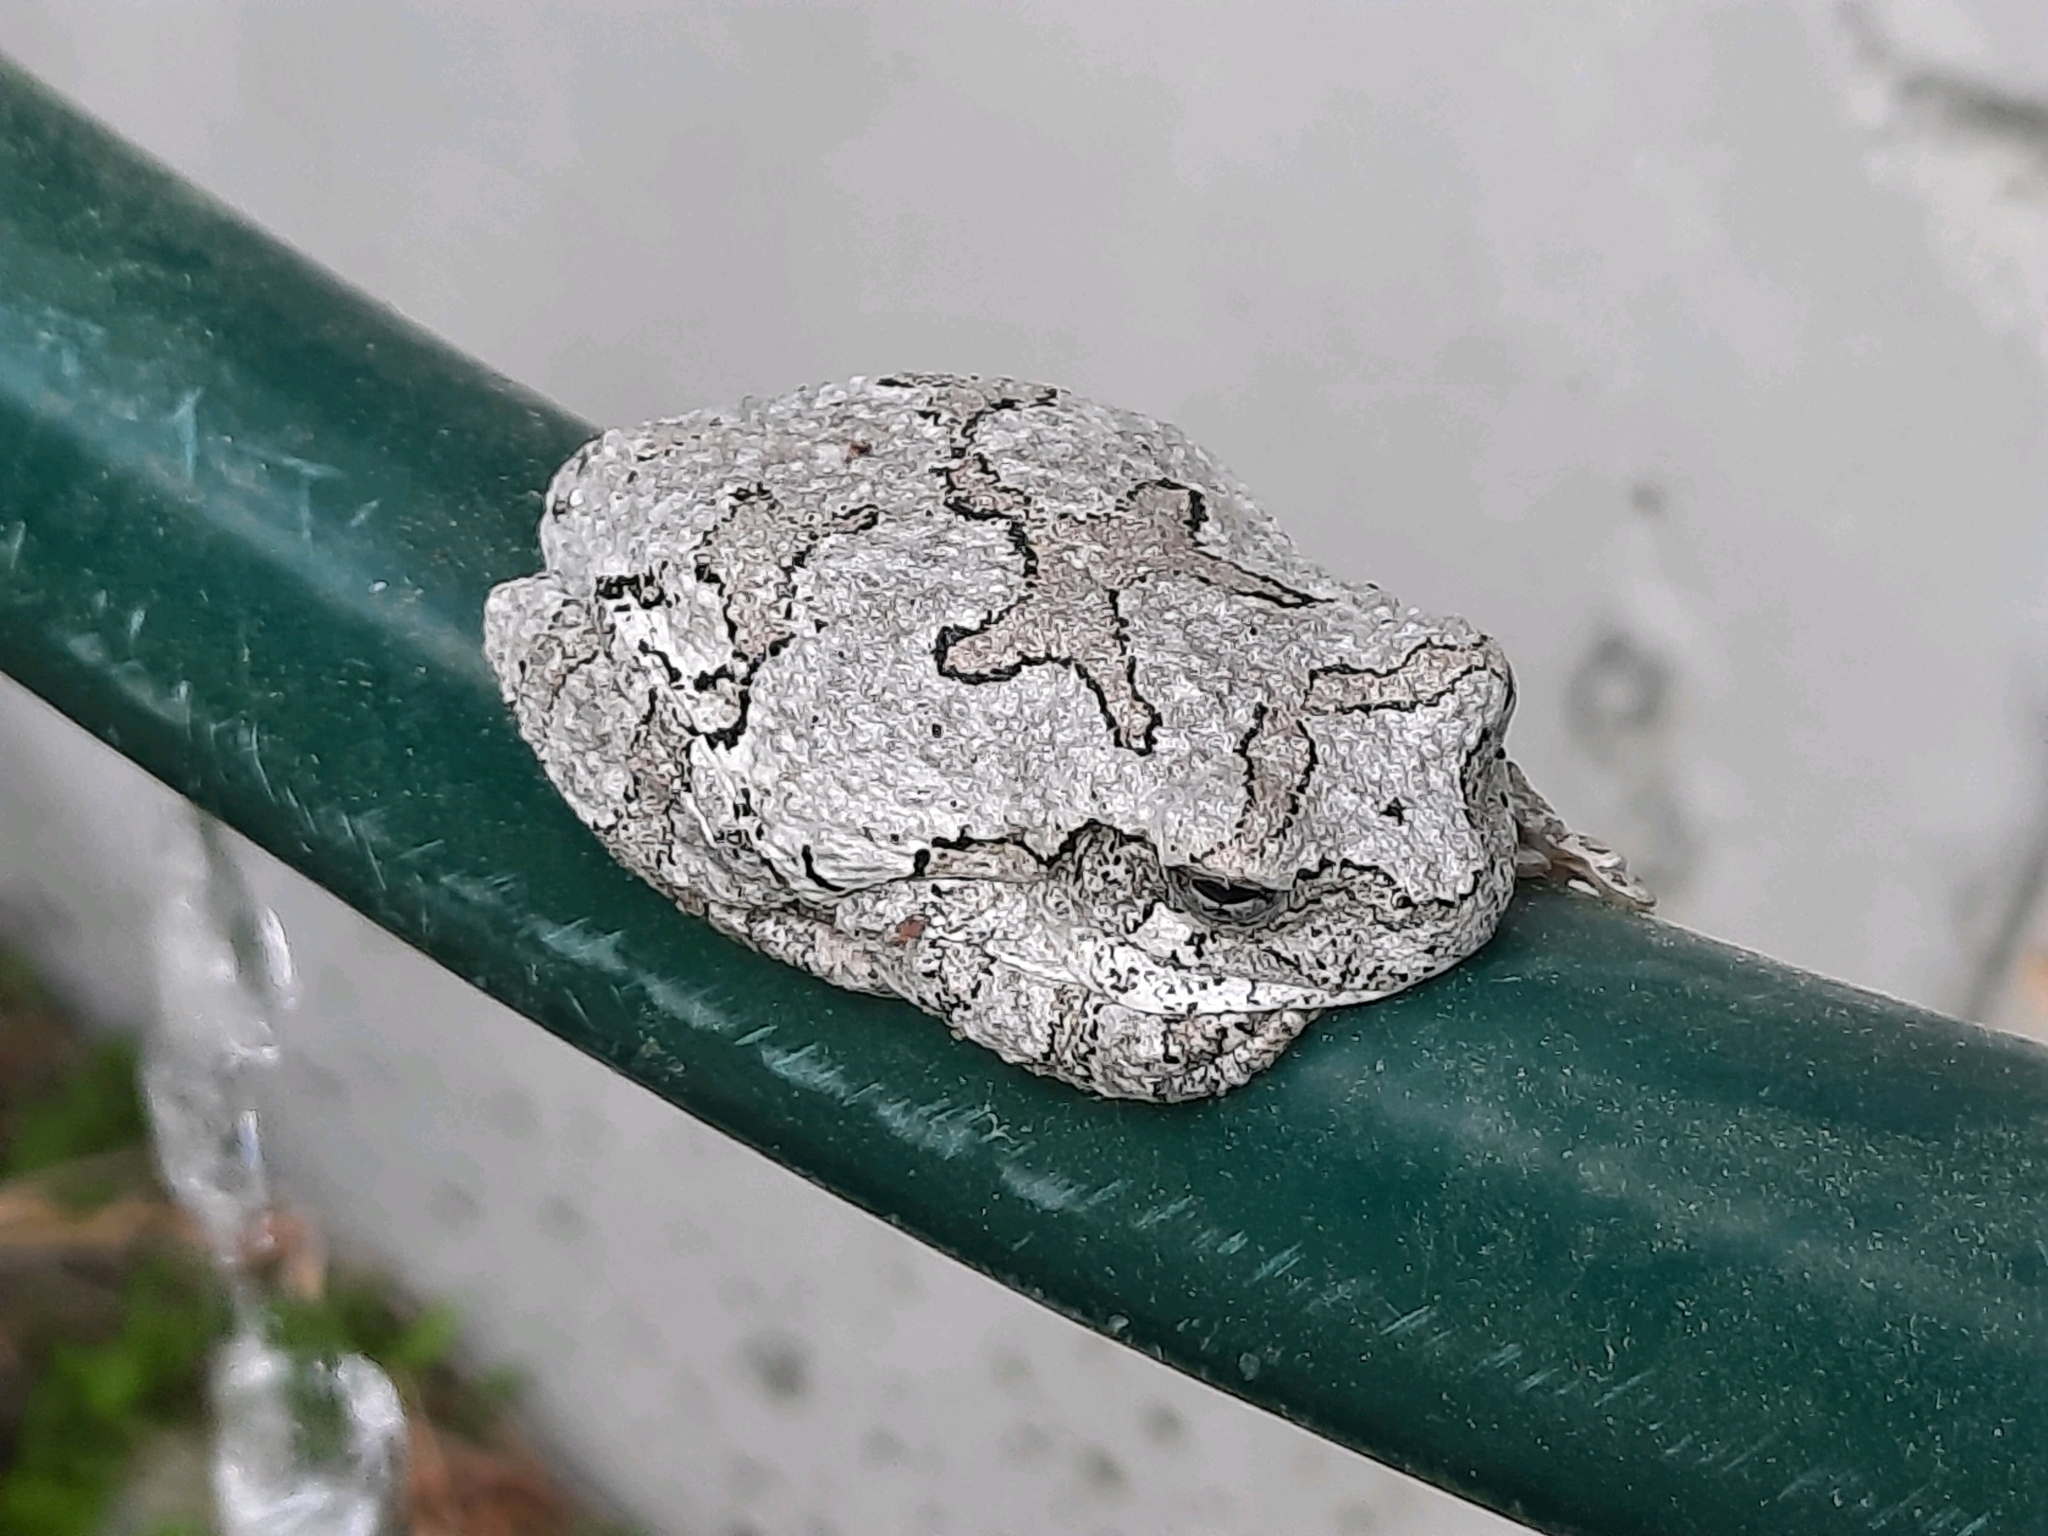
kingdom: Animalia
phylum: Chordata
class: Amphibia
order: Anura
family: Hylidae
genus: Dryophytes
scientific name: Dryophytes versicolor
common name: Gray treefrog
